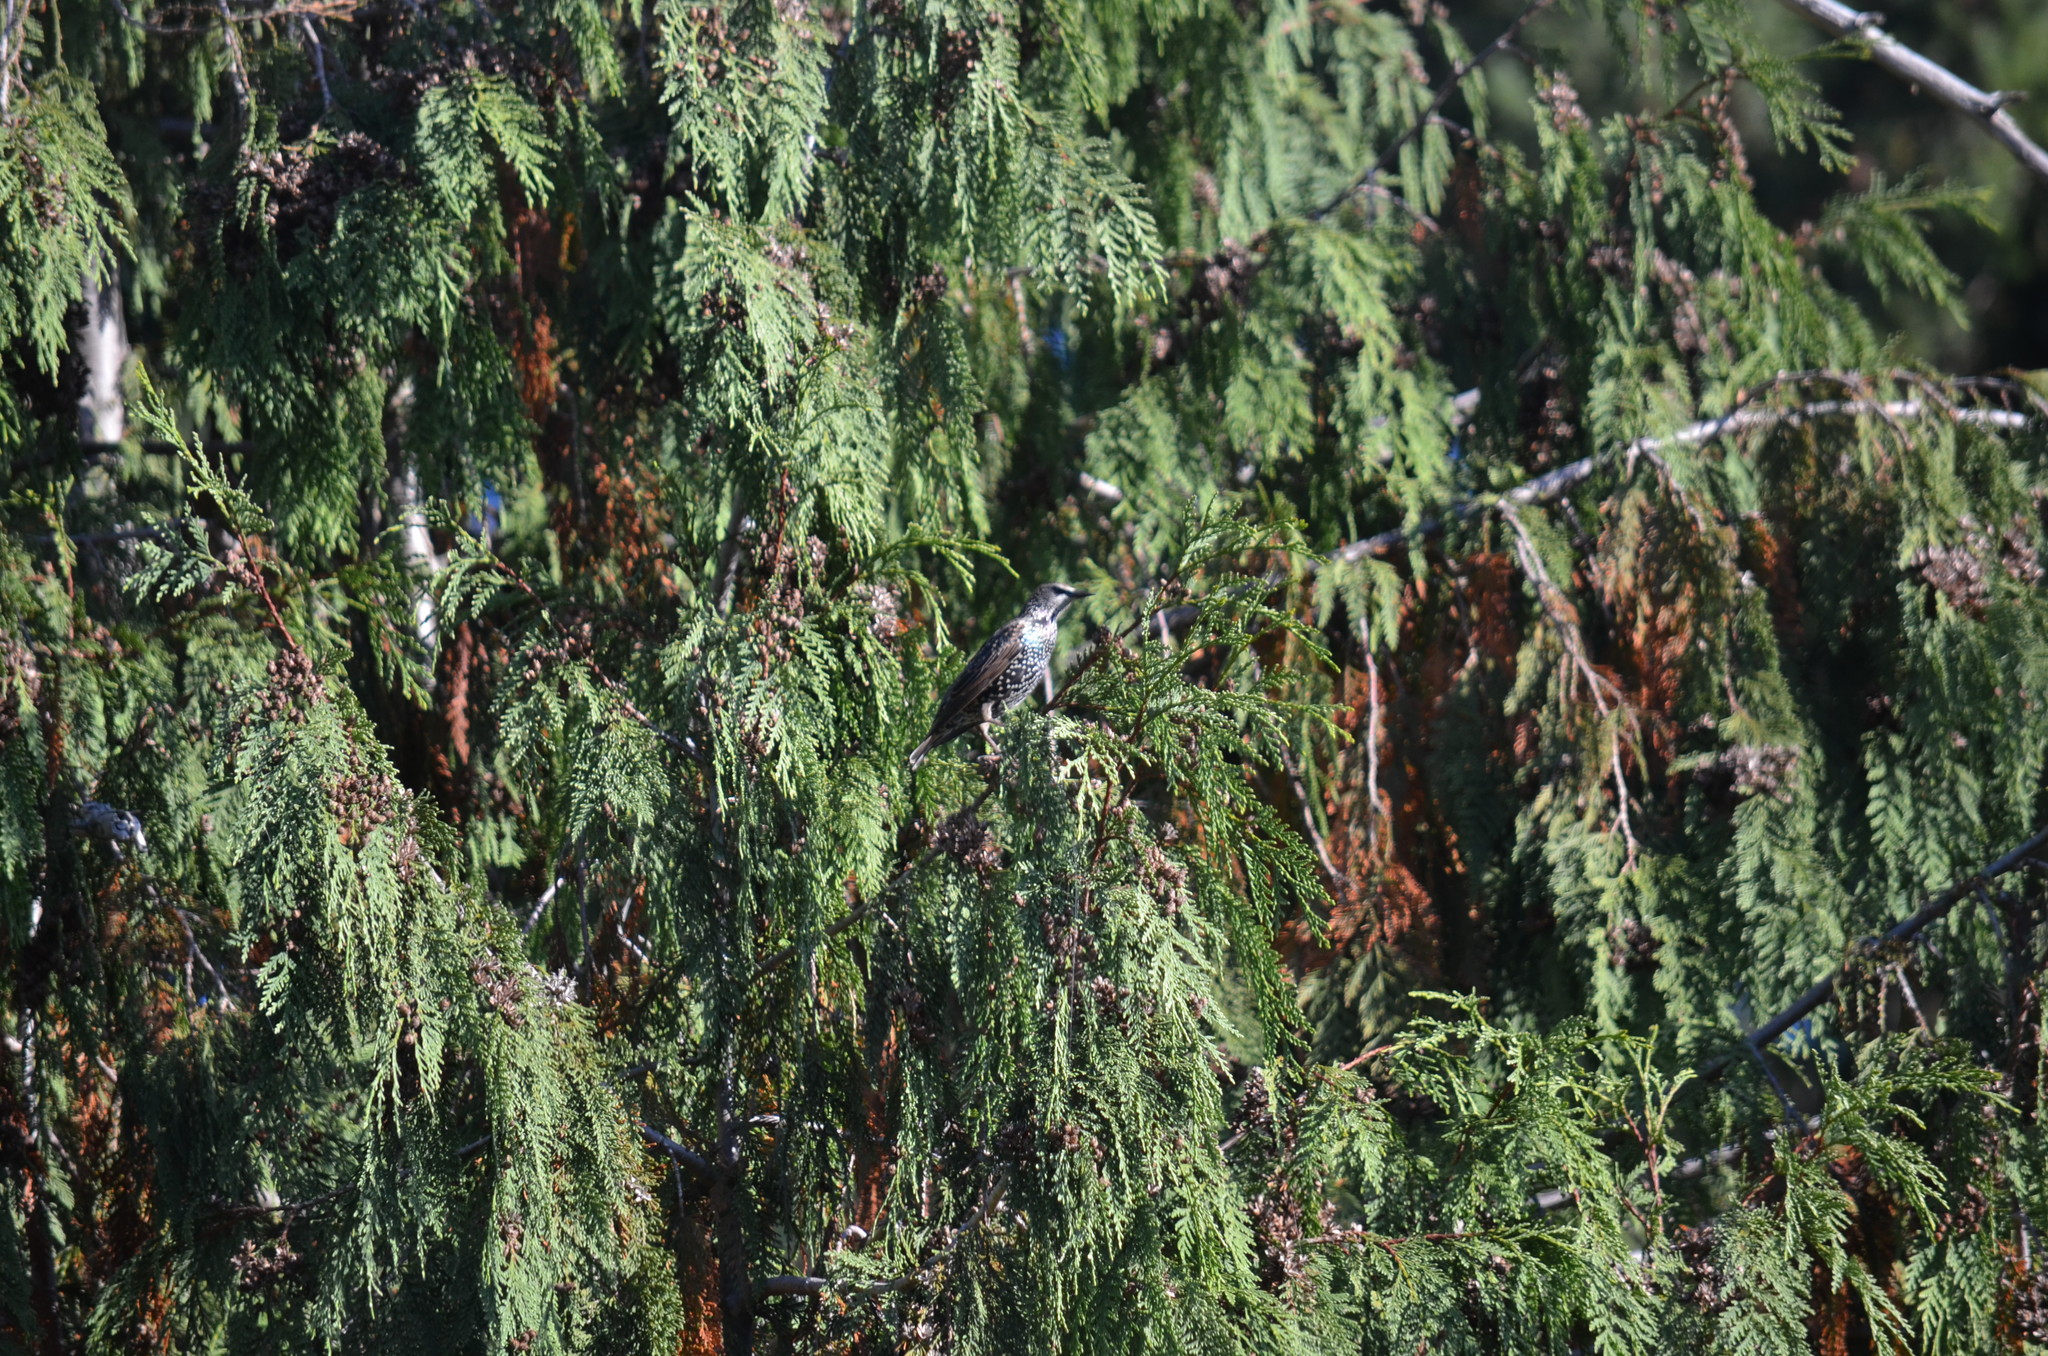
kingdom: Animalia
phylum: Chordata
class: Aves
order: Passeriformes
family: Sturnidae
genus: Sturnus
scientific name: Sturnus vulgaris
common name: Common starling
